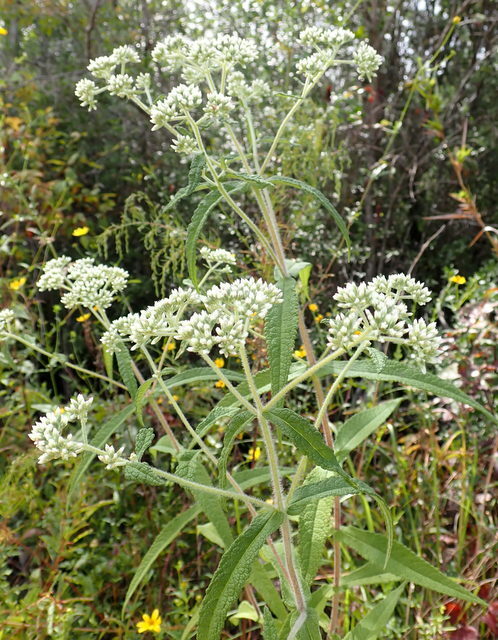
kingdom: Plantae
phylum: Tracheophyta
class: Magnoliopsida
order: Asterales
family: Asteraceae
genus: Eupatorium
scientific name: Eupatorium perfoliatum
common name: Boneset
